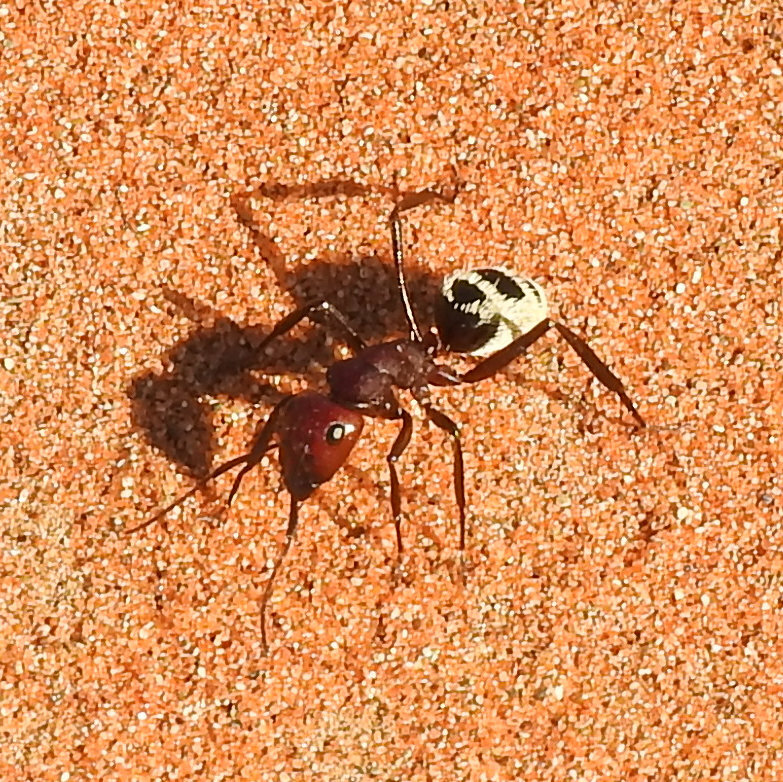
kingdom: Animalia
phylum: Arthropoda
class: Insecta
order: Hymenoptera
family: Formicidae
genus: Camponotus
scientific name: Camponotus detritus
